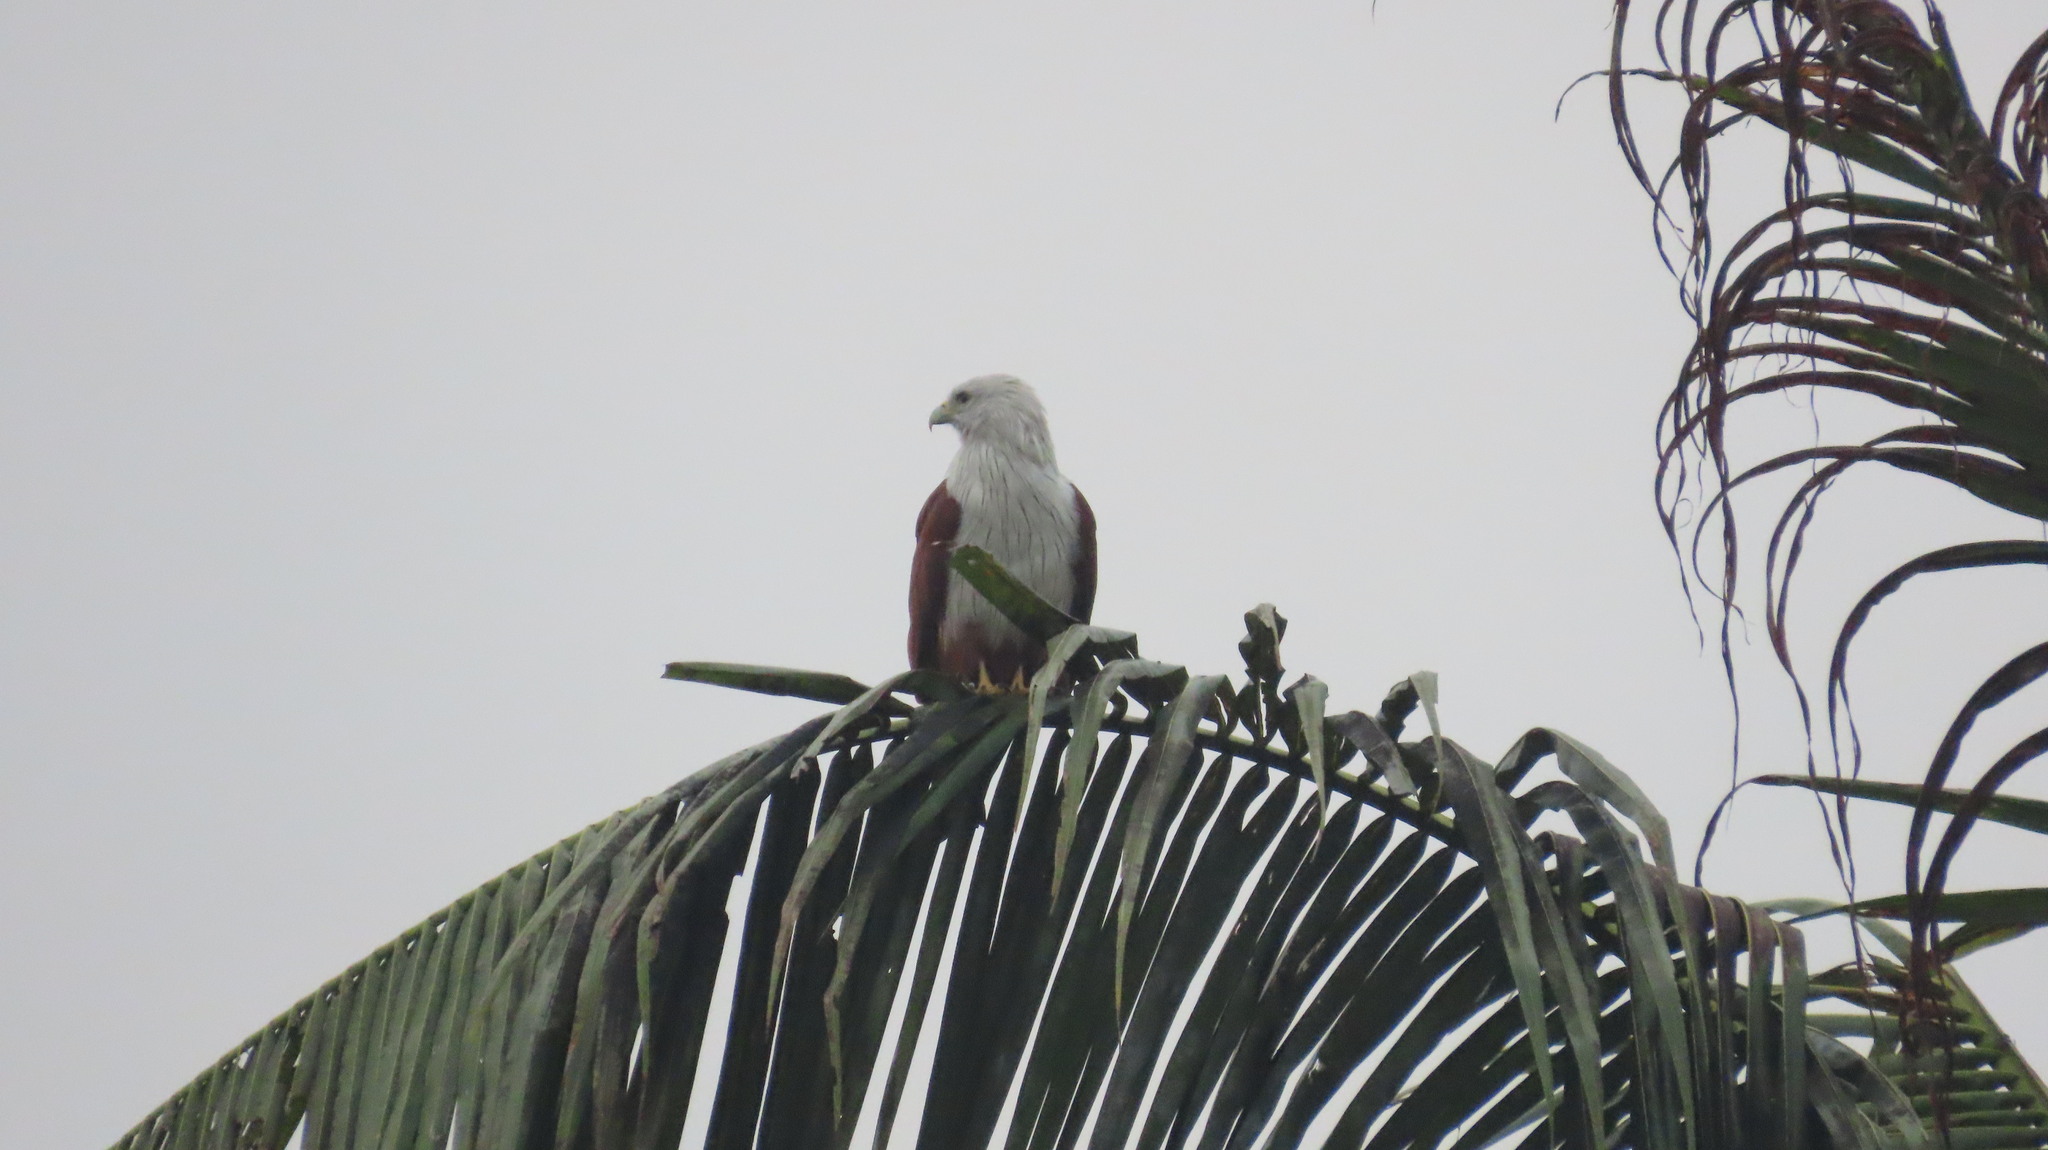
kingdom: Animalia
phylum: Chordata
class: Aves
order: Accipitriformes
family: Accipitridae
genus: Haliastur
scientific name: Haliastur indus
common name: Brahminy kite
